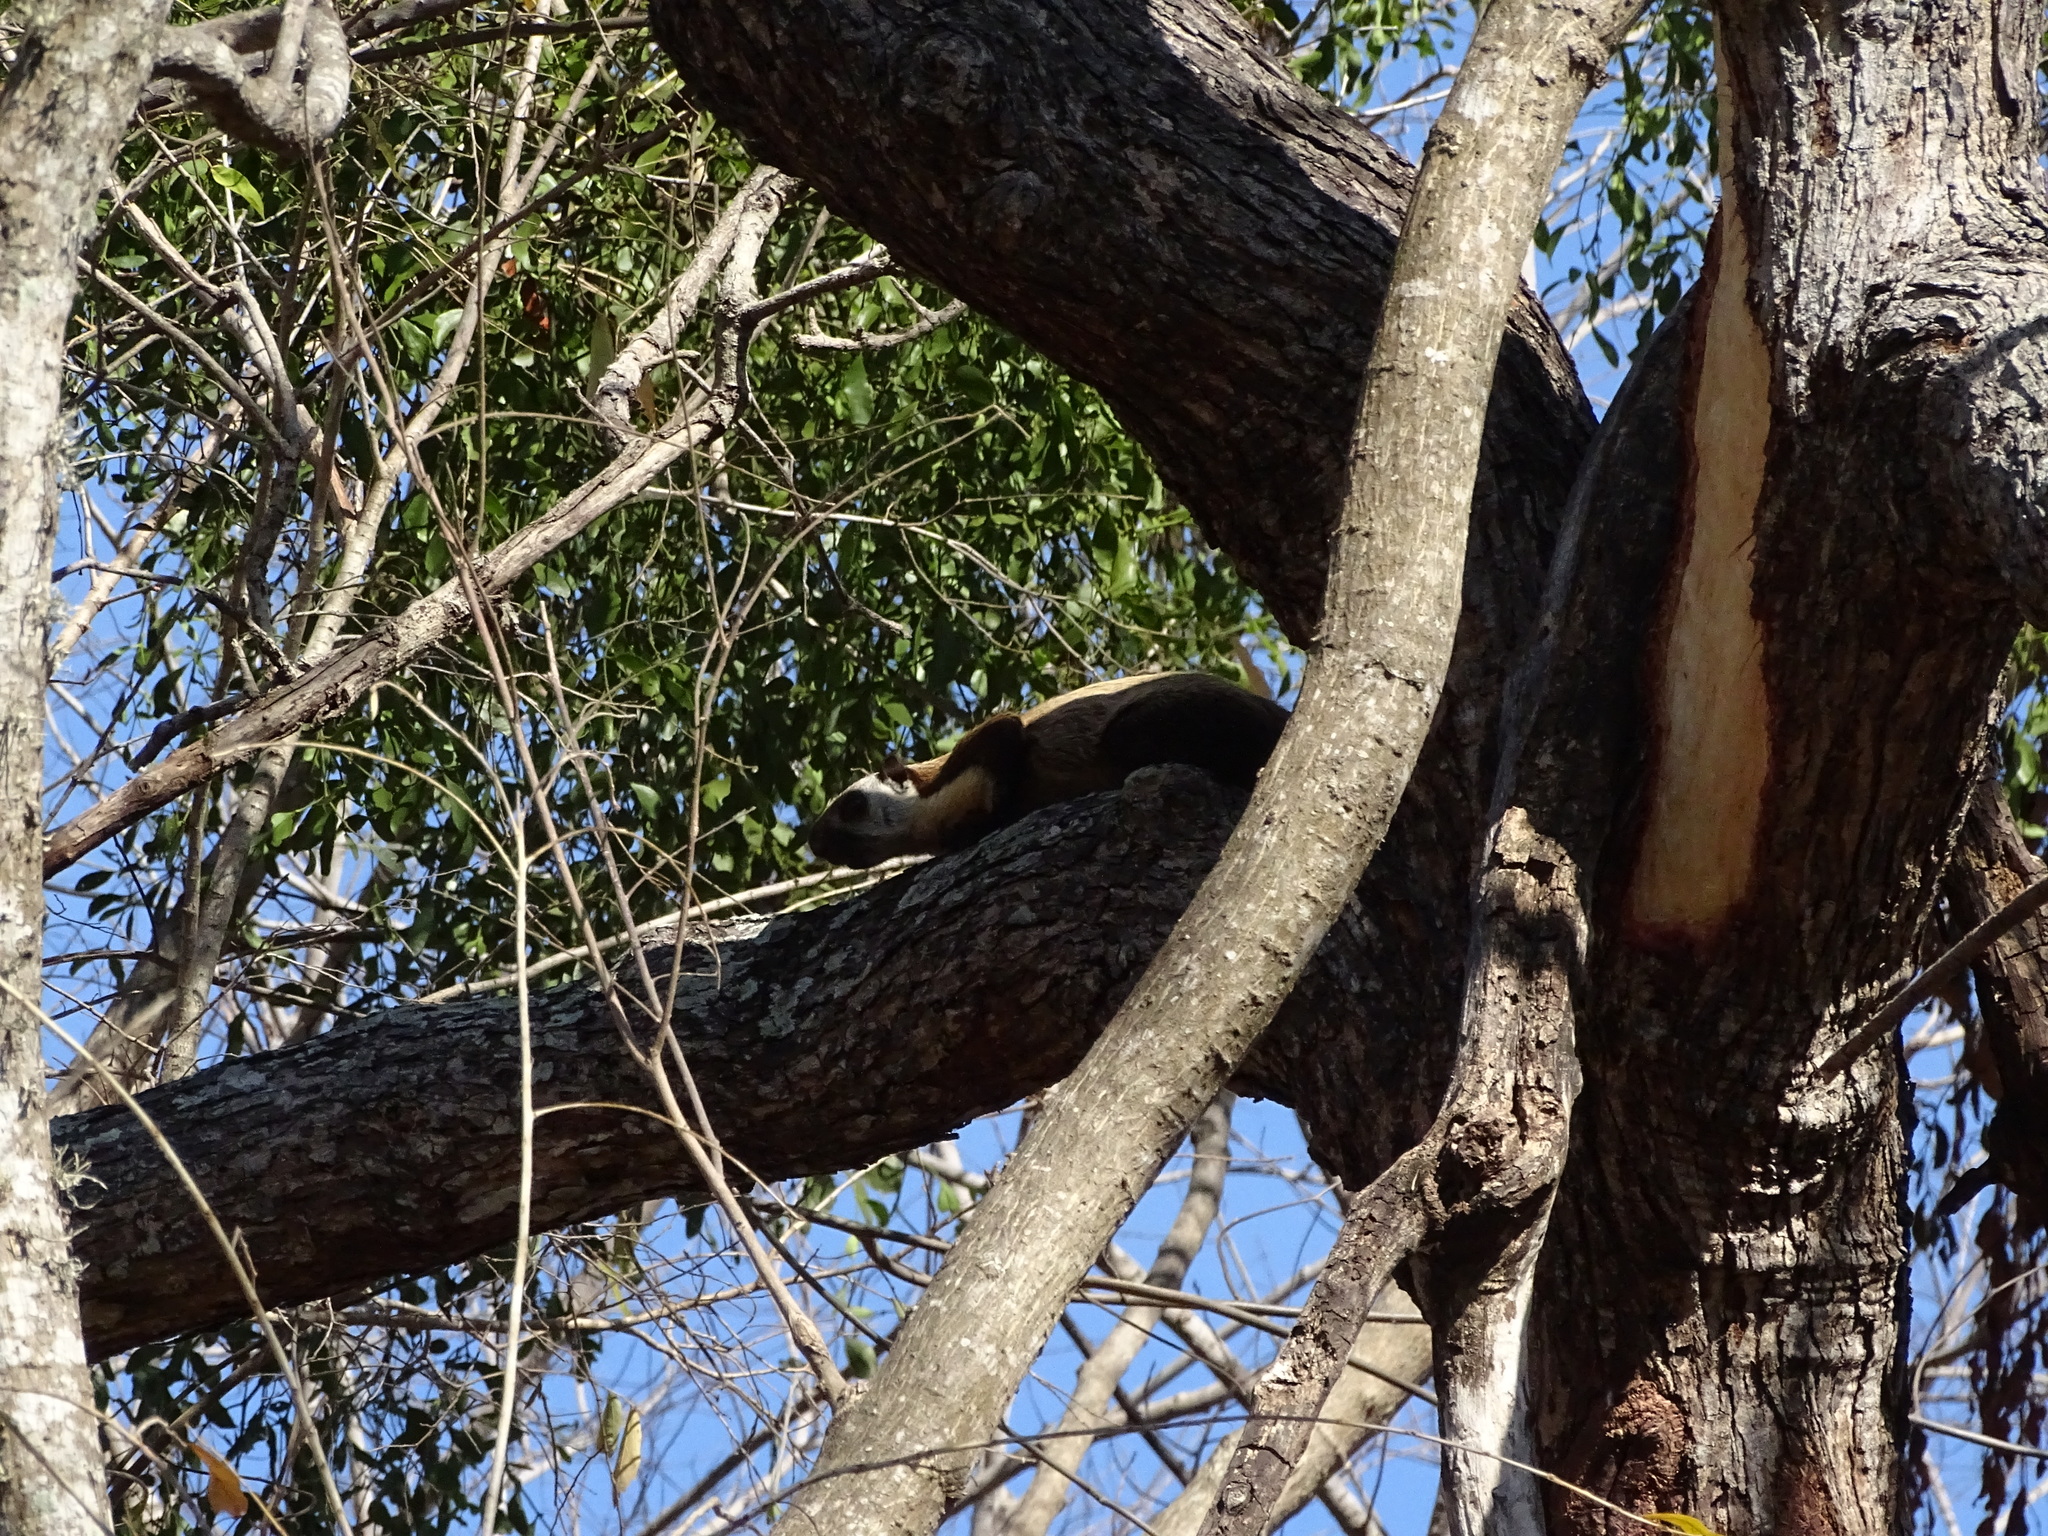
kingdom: Animalia
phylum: Chordata
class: Mammalia
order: Rodentia
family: Sciuridae
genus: Ratufa
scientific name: Ratufa bicolor
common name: Black giant squirrel
